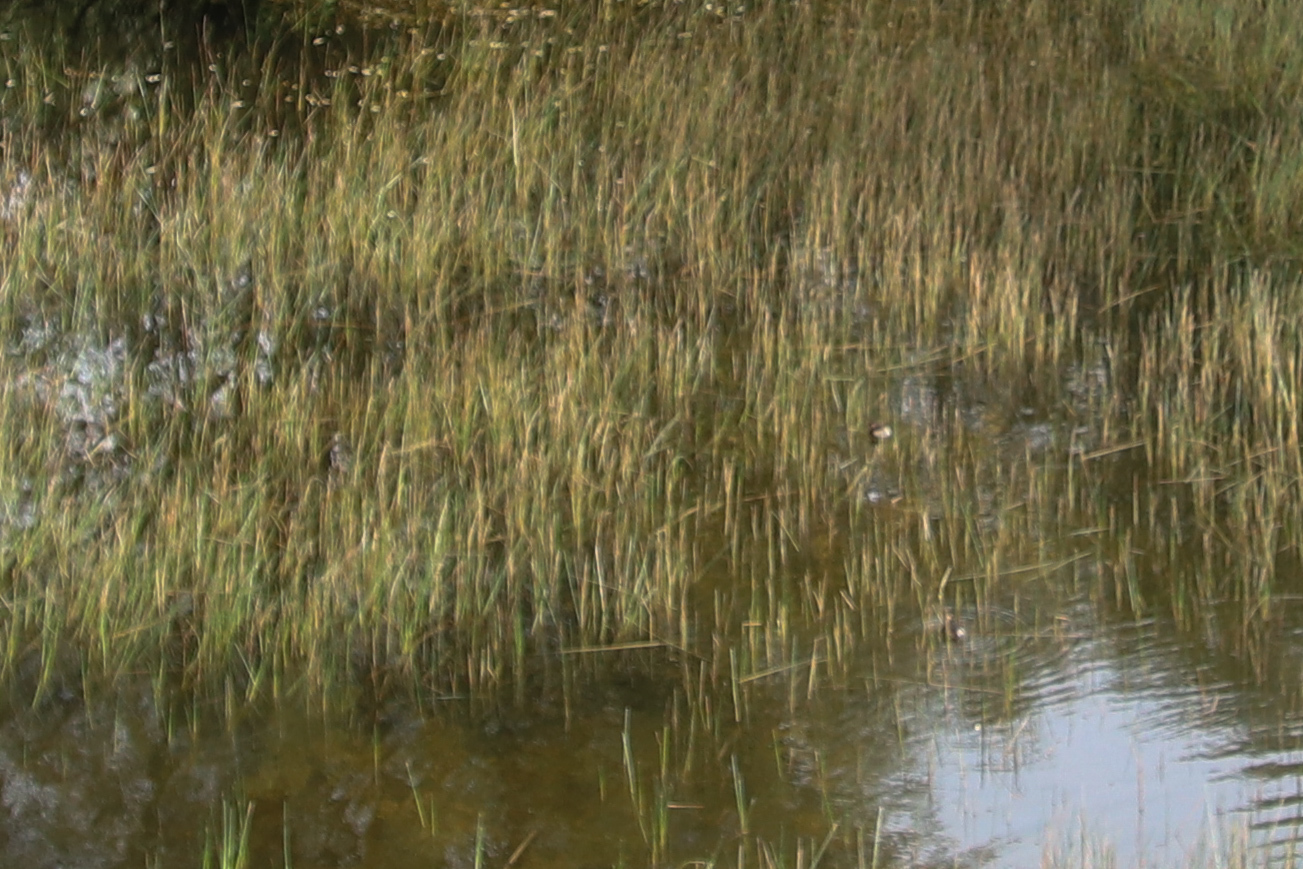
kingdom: Animalia
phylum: Chordata
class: Aves
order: Podicipediformes
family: Podicipedidae
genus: Tachybaptus
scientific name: Tachybaptus ruficollis
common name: Little grebe
